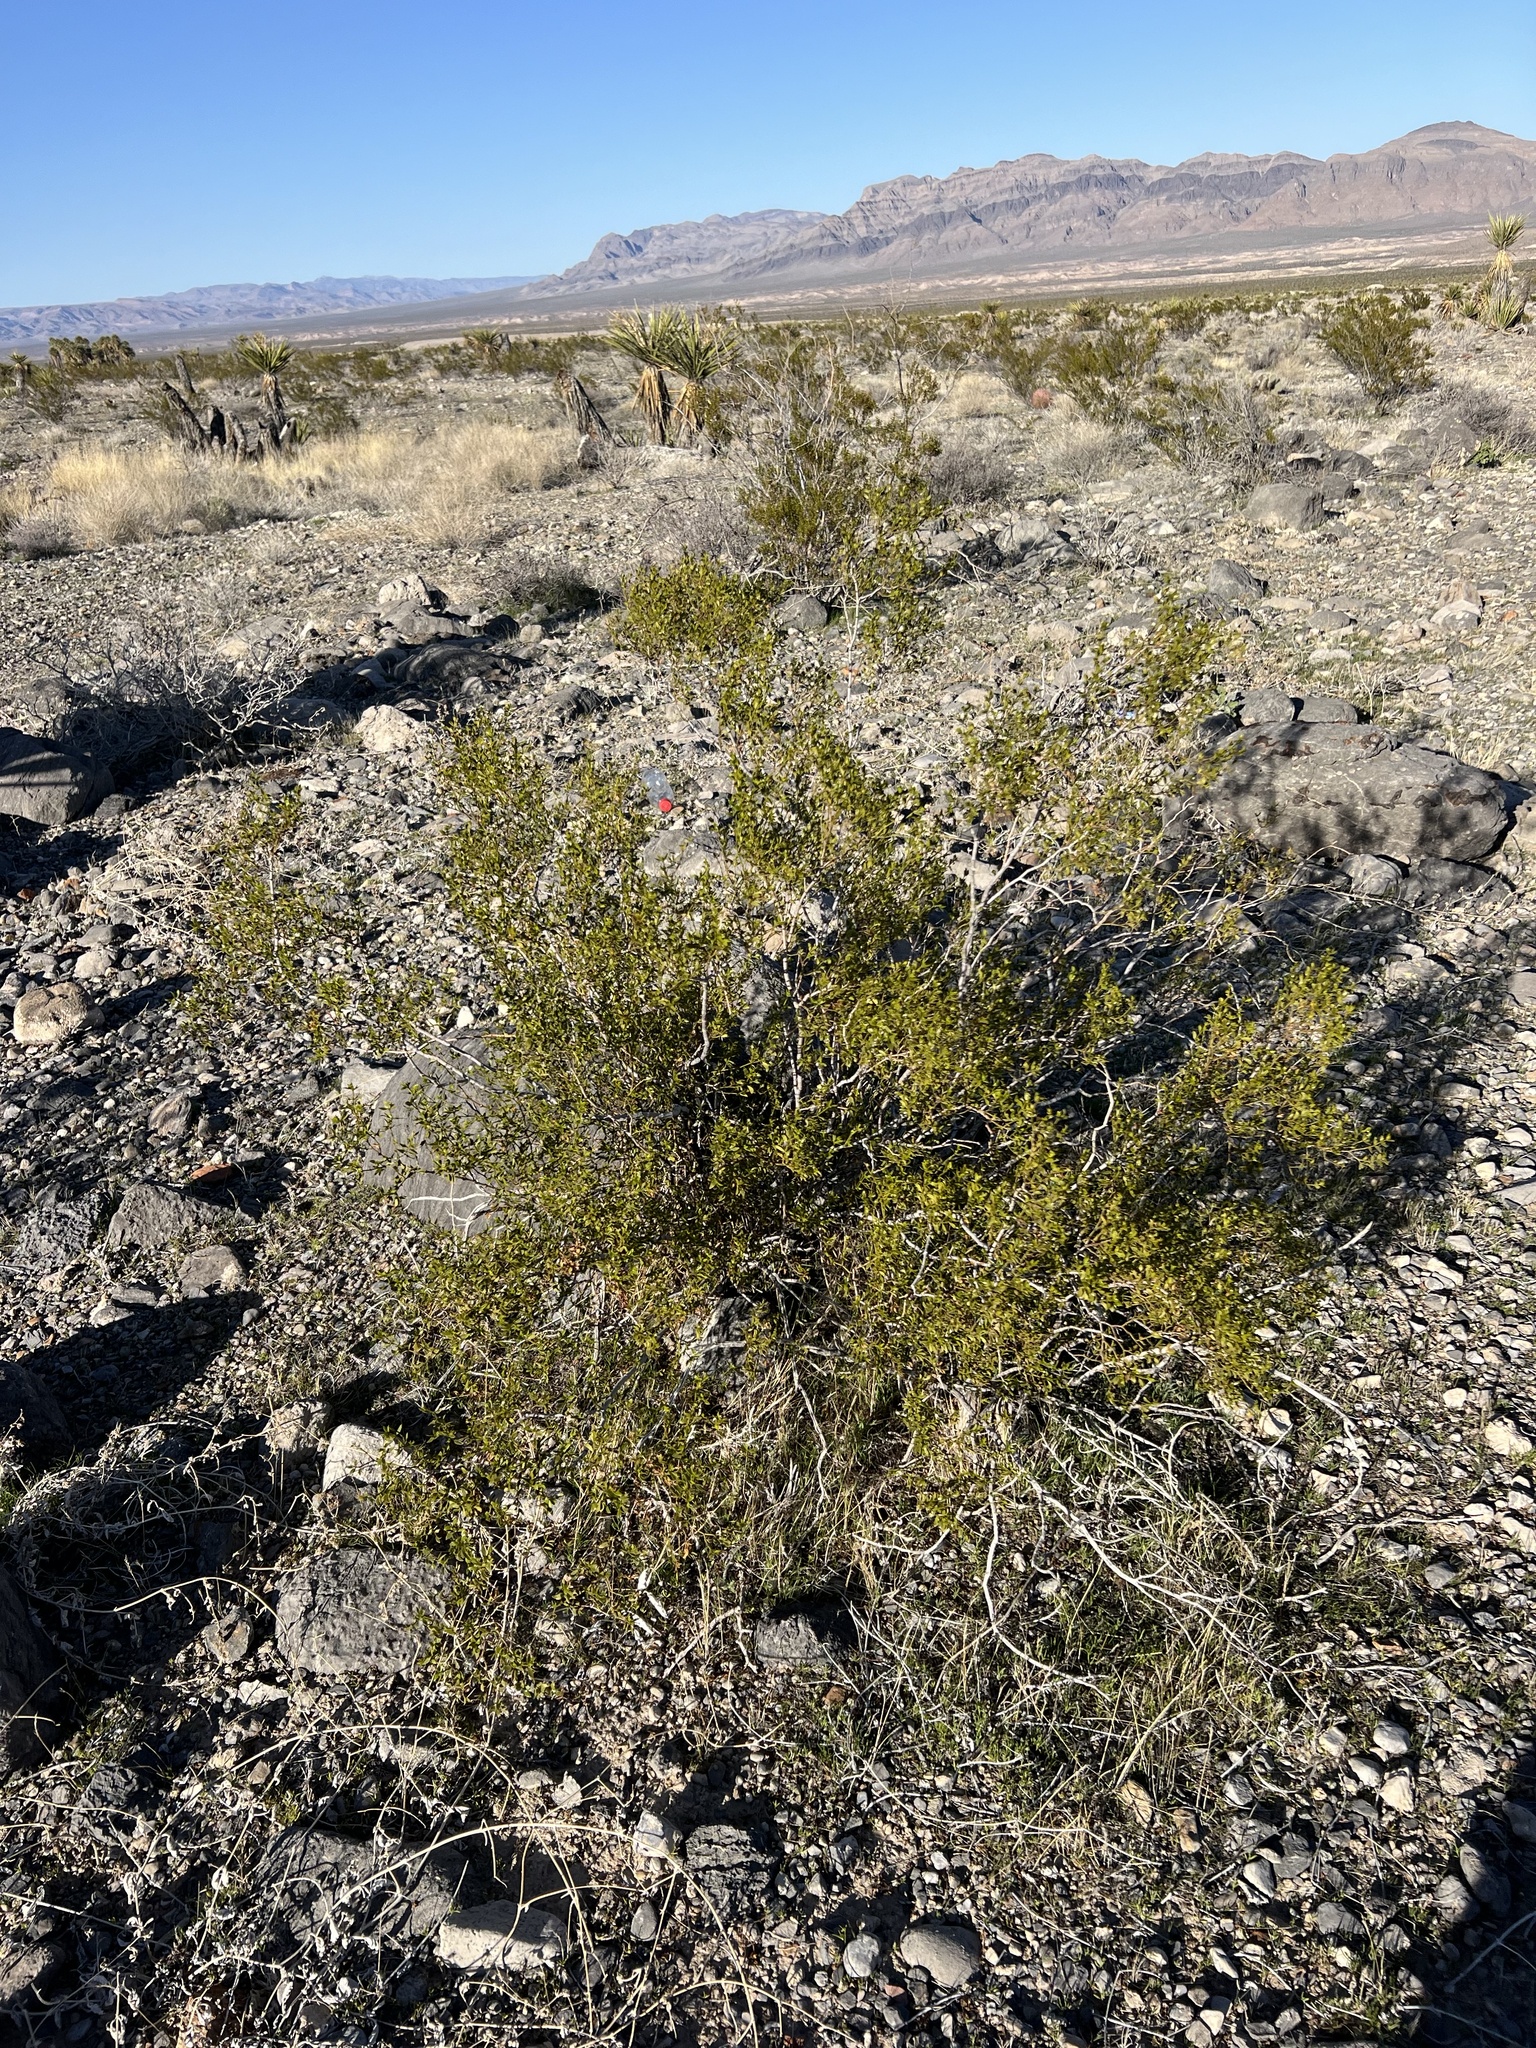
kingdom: Plantae
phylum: Tracheophyta
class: Magnoliopsida
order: Zygophyllales
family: Zygophyllaceae
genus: Larrea
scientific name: Larrea tridentata
